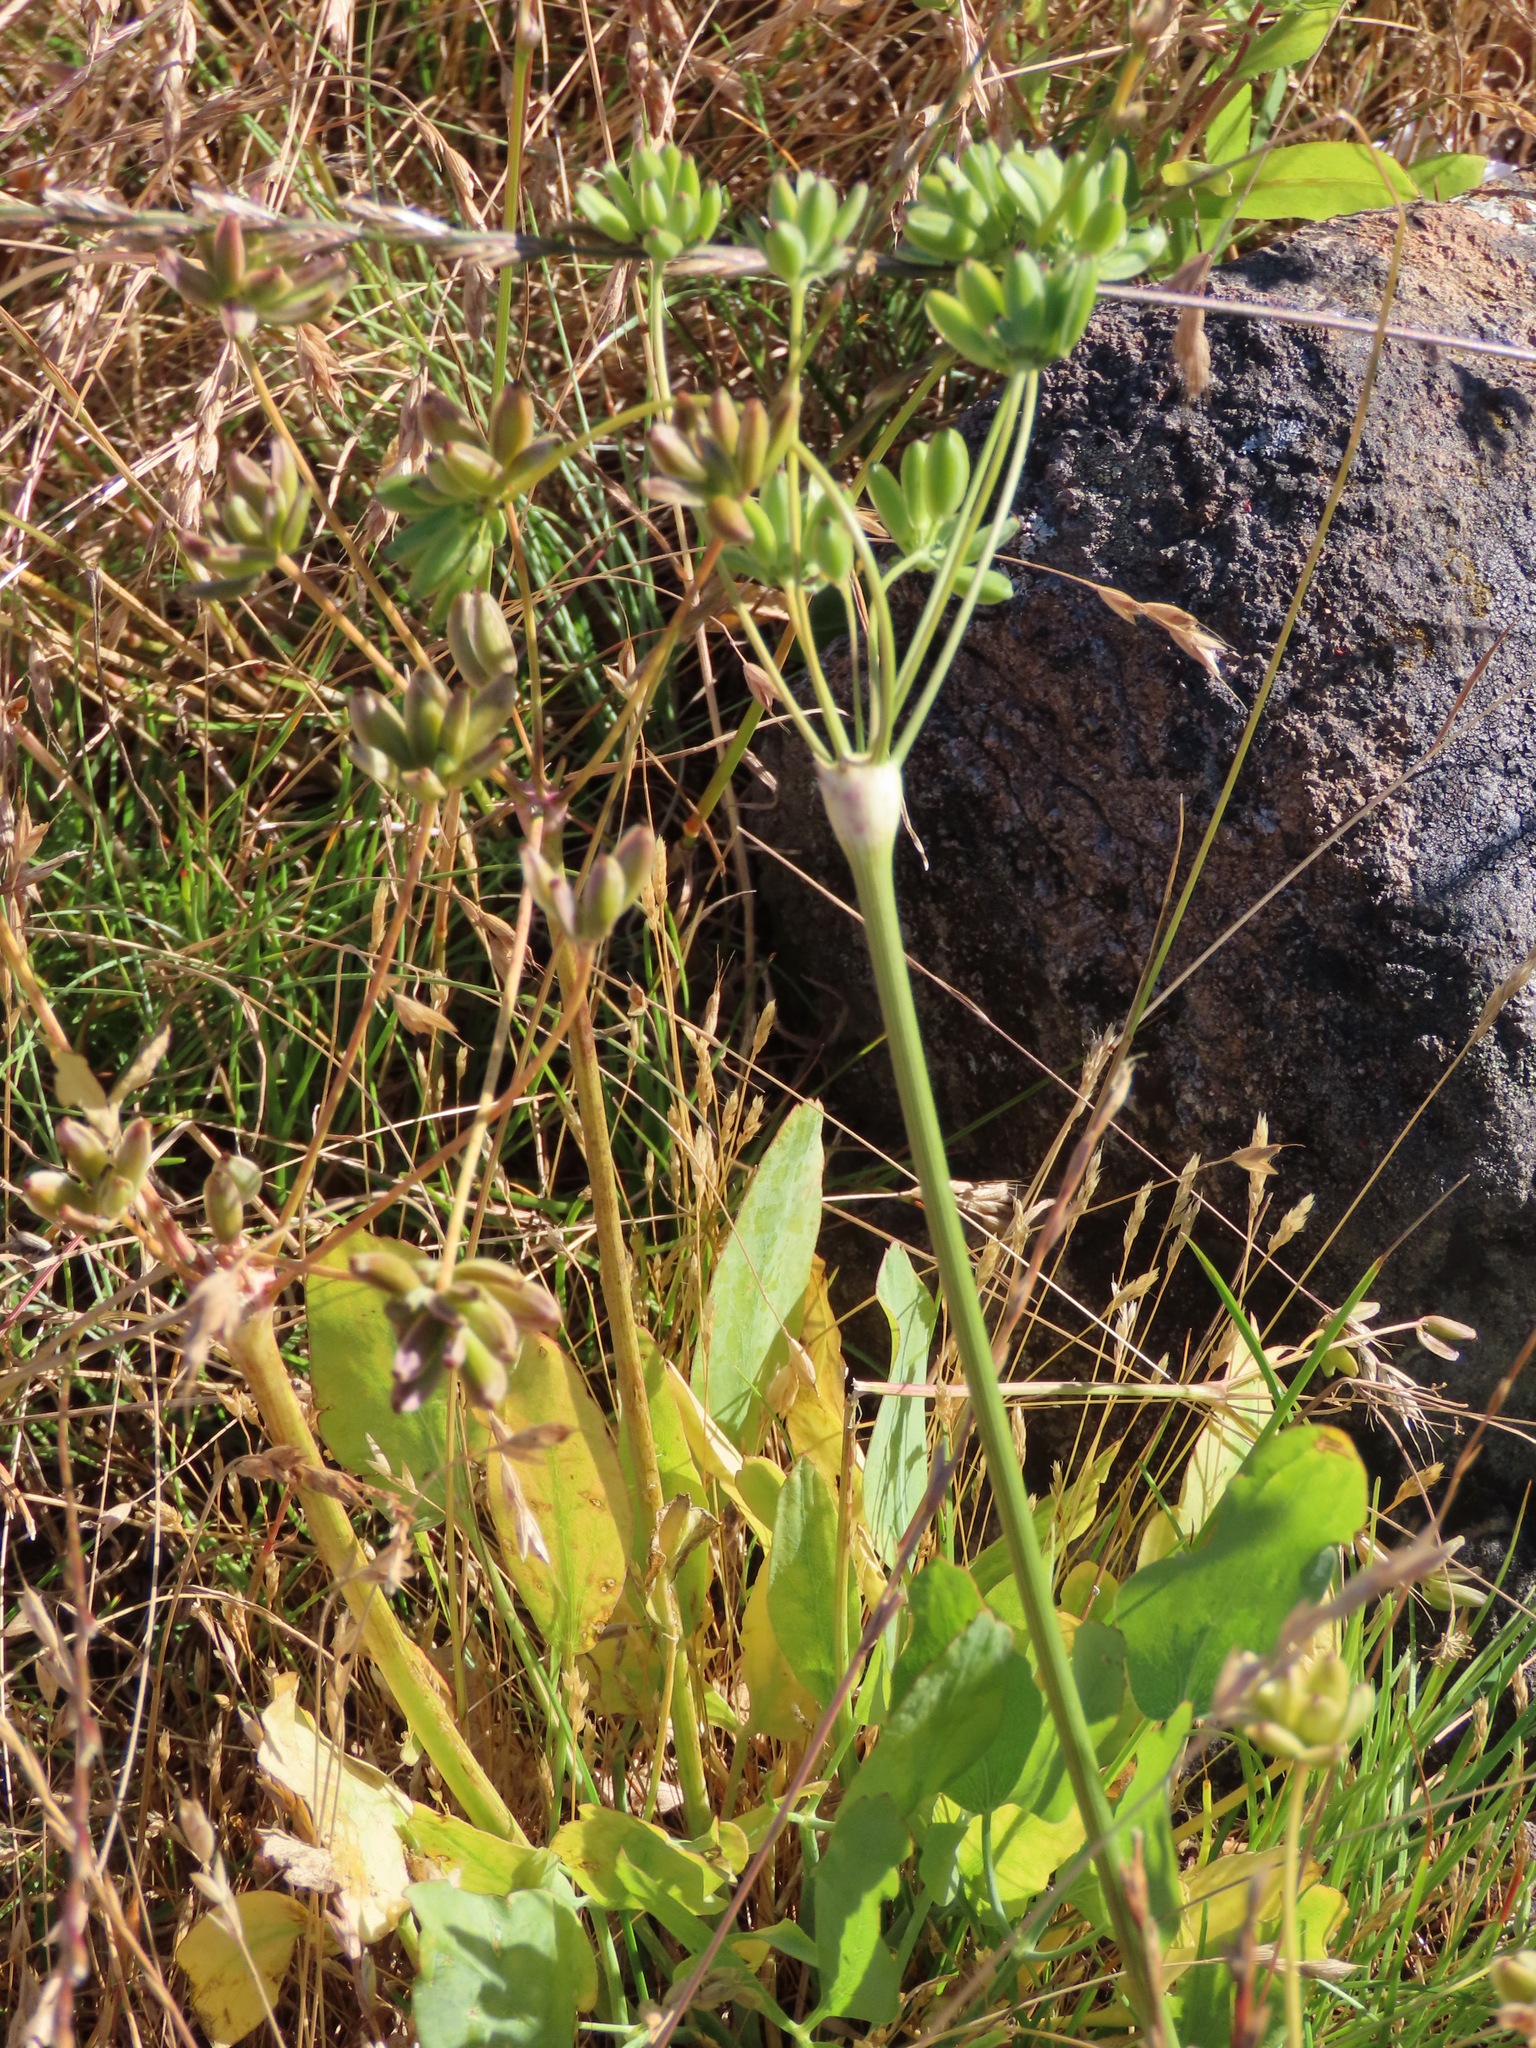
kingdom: Plantae
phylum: Tracheophyta
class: Magnoliopsida
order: Apiales
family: Apiaceae
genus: Lomatium
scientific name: Lomatium nudicaule
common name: Pestle lomatium
